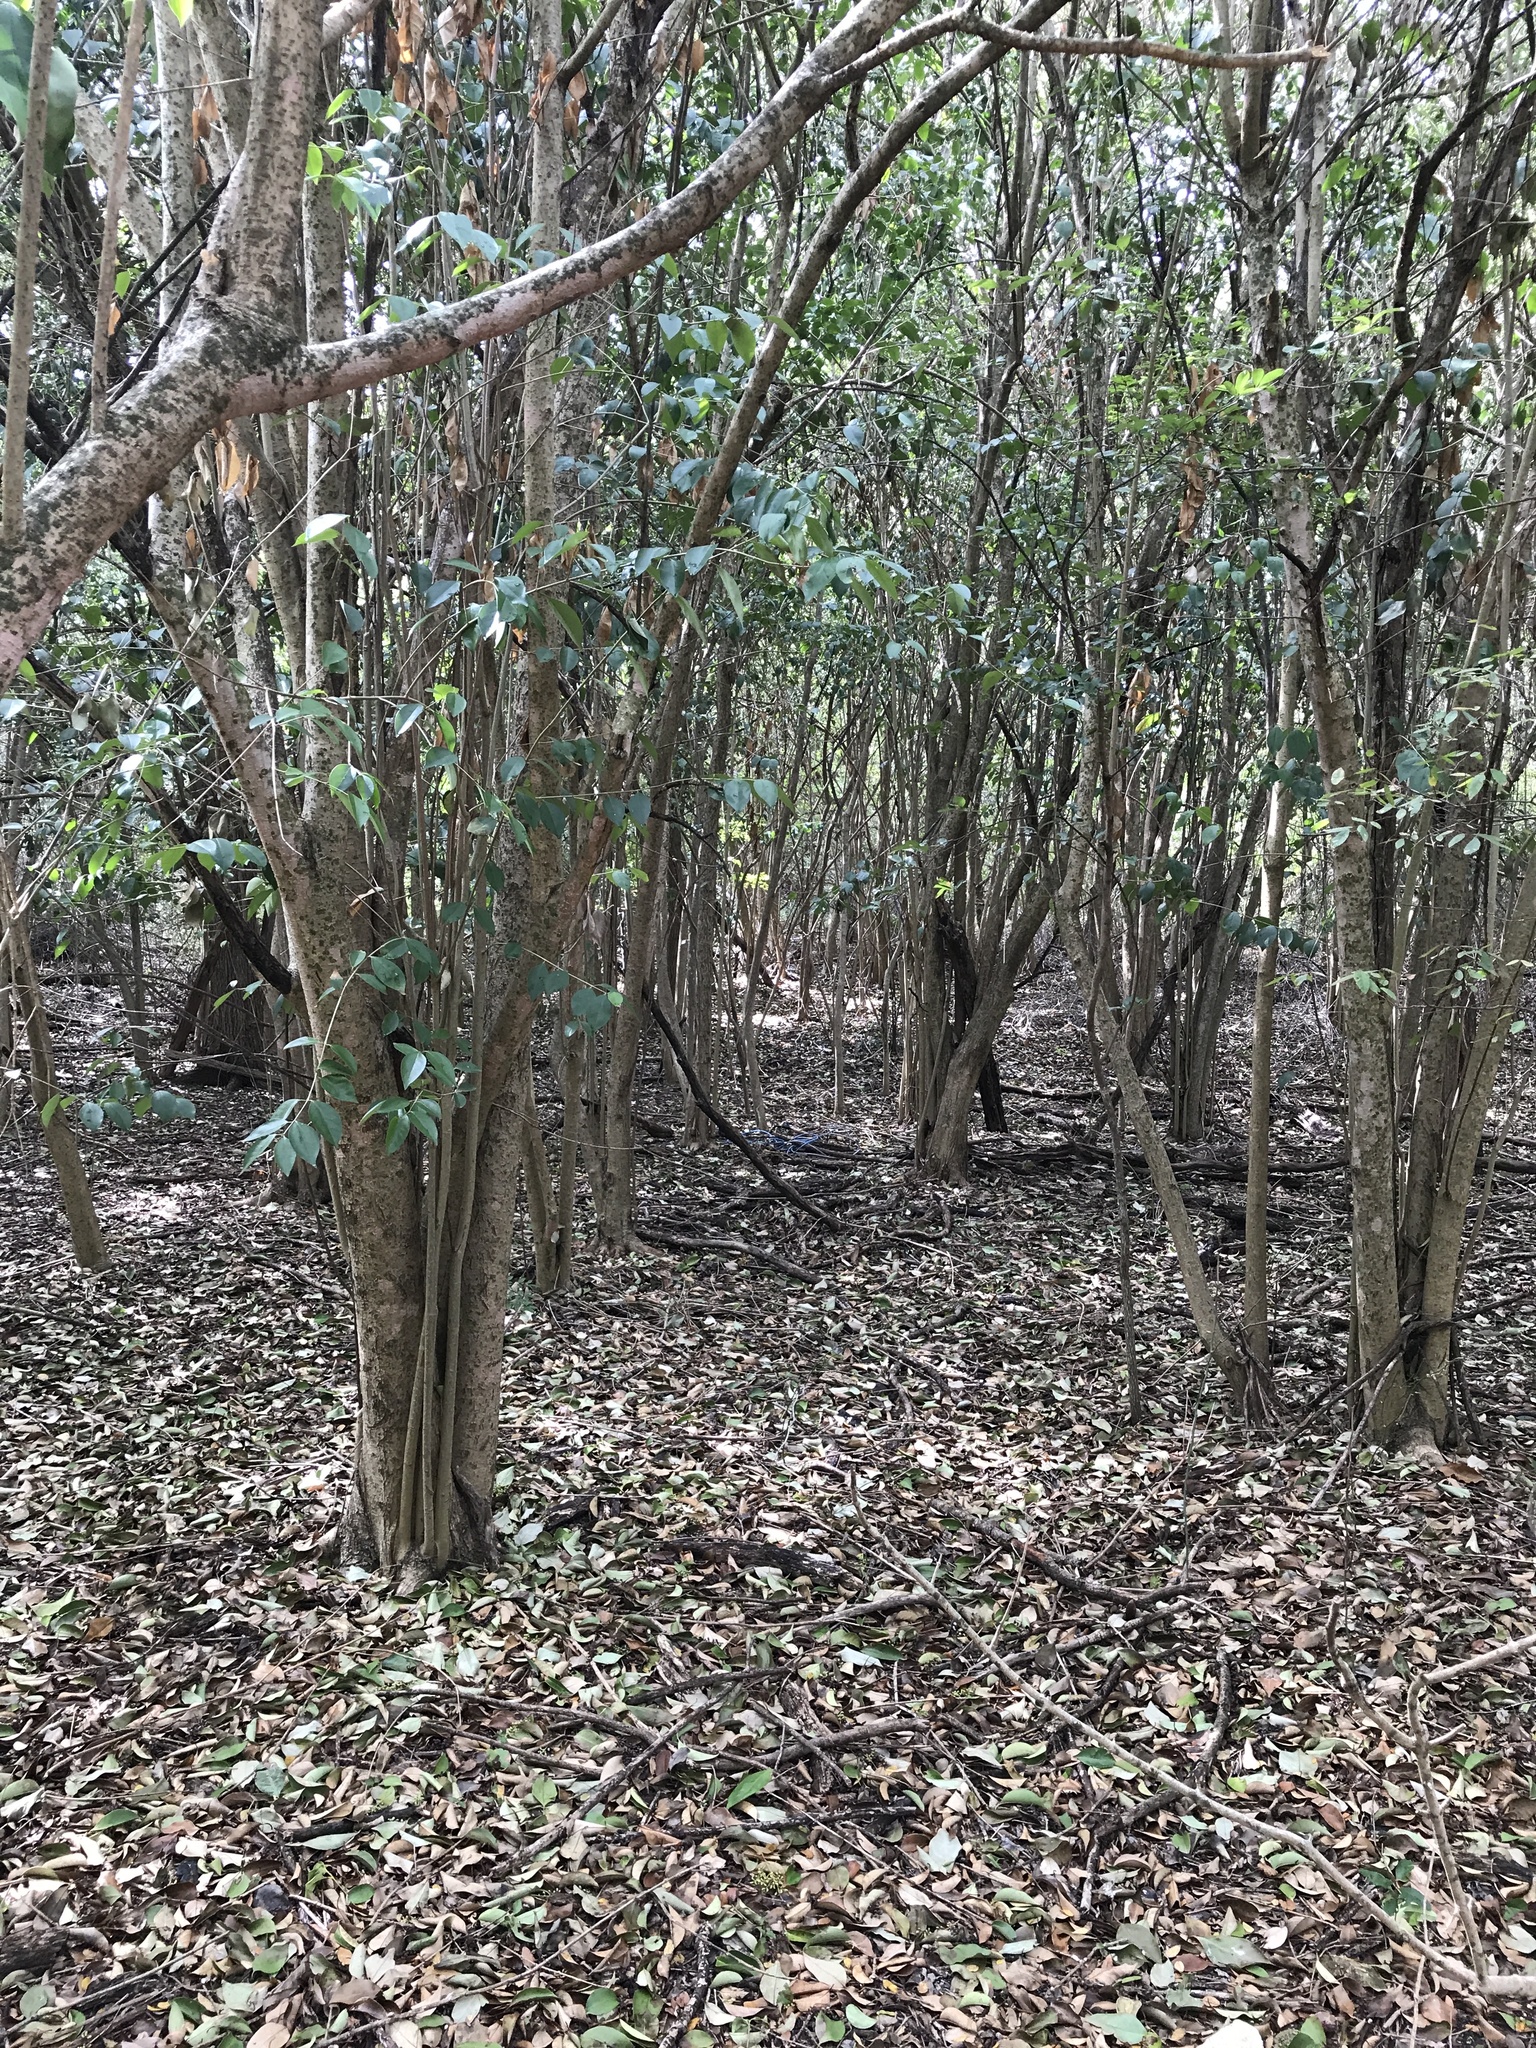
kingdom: Plantae
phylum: Tracheophyta
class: Magnoliopsida
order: Lamiales
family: Oleaceae
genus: Ligustrum
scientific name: Ligustrum lucidum
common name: Glossy privet
